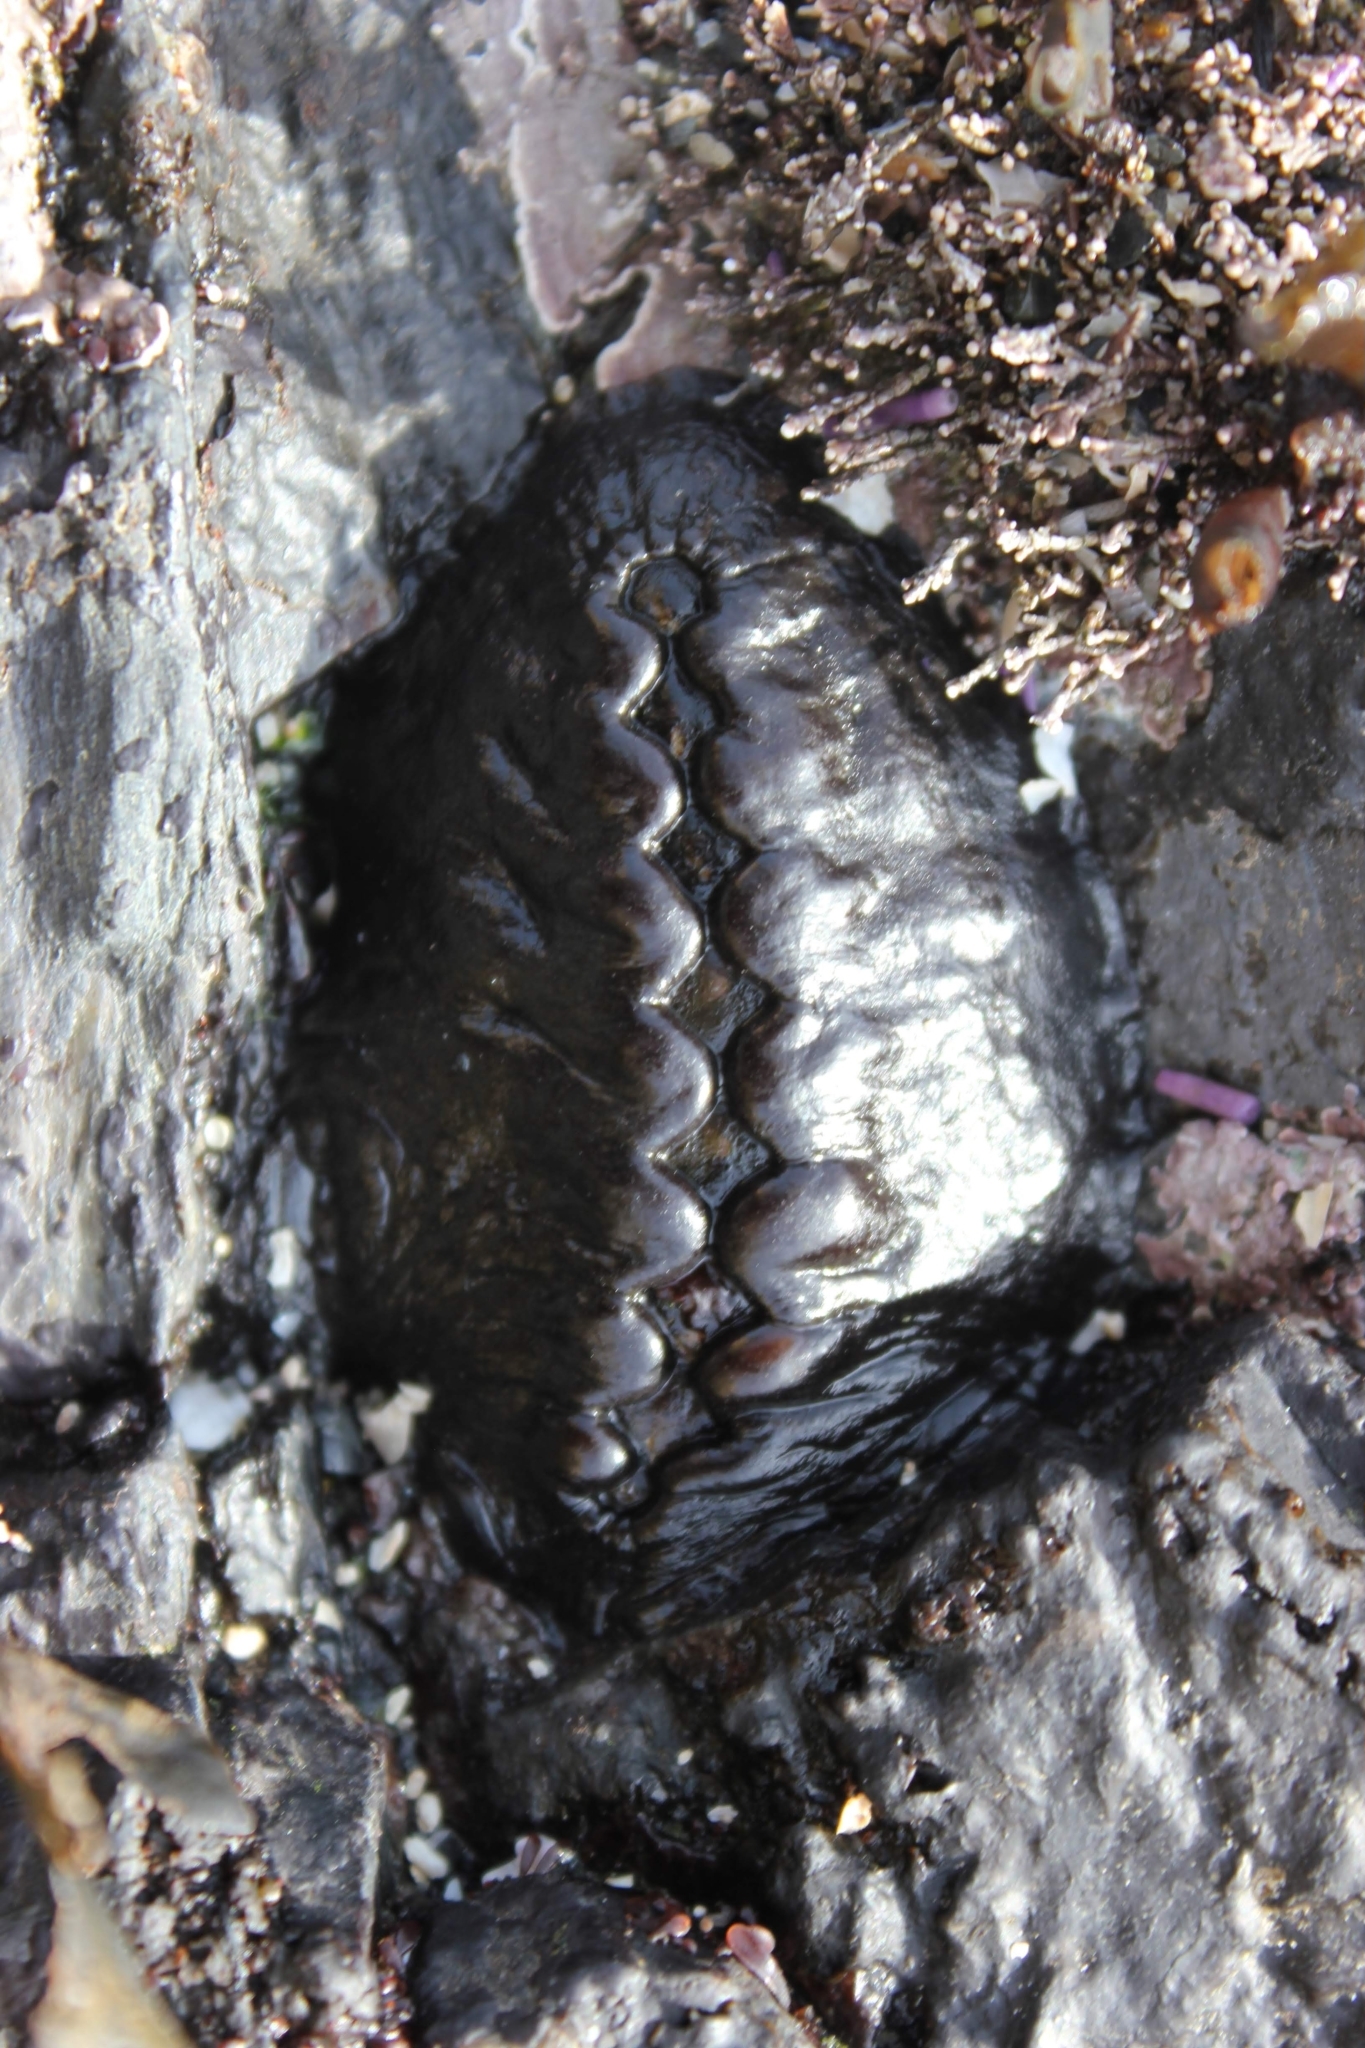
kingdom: Animalia
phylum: Mollusca
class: Polyplacophora
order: Chitonida
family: Mopaliidae
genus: Katharina
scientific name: Katharina tunicata
